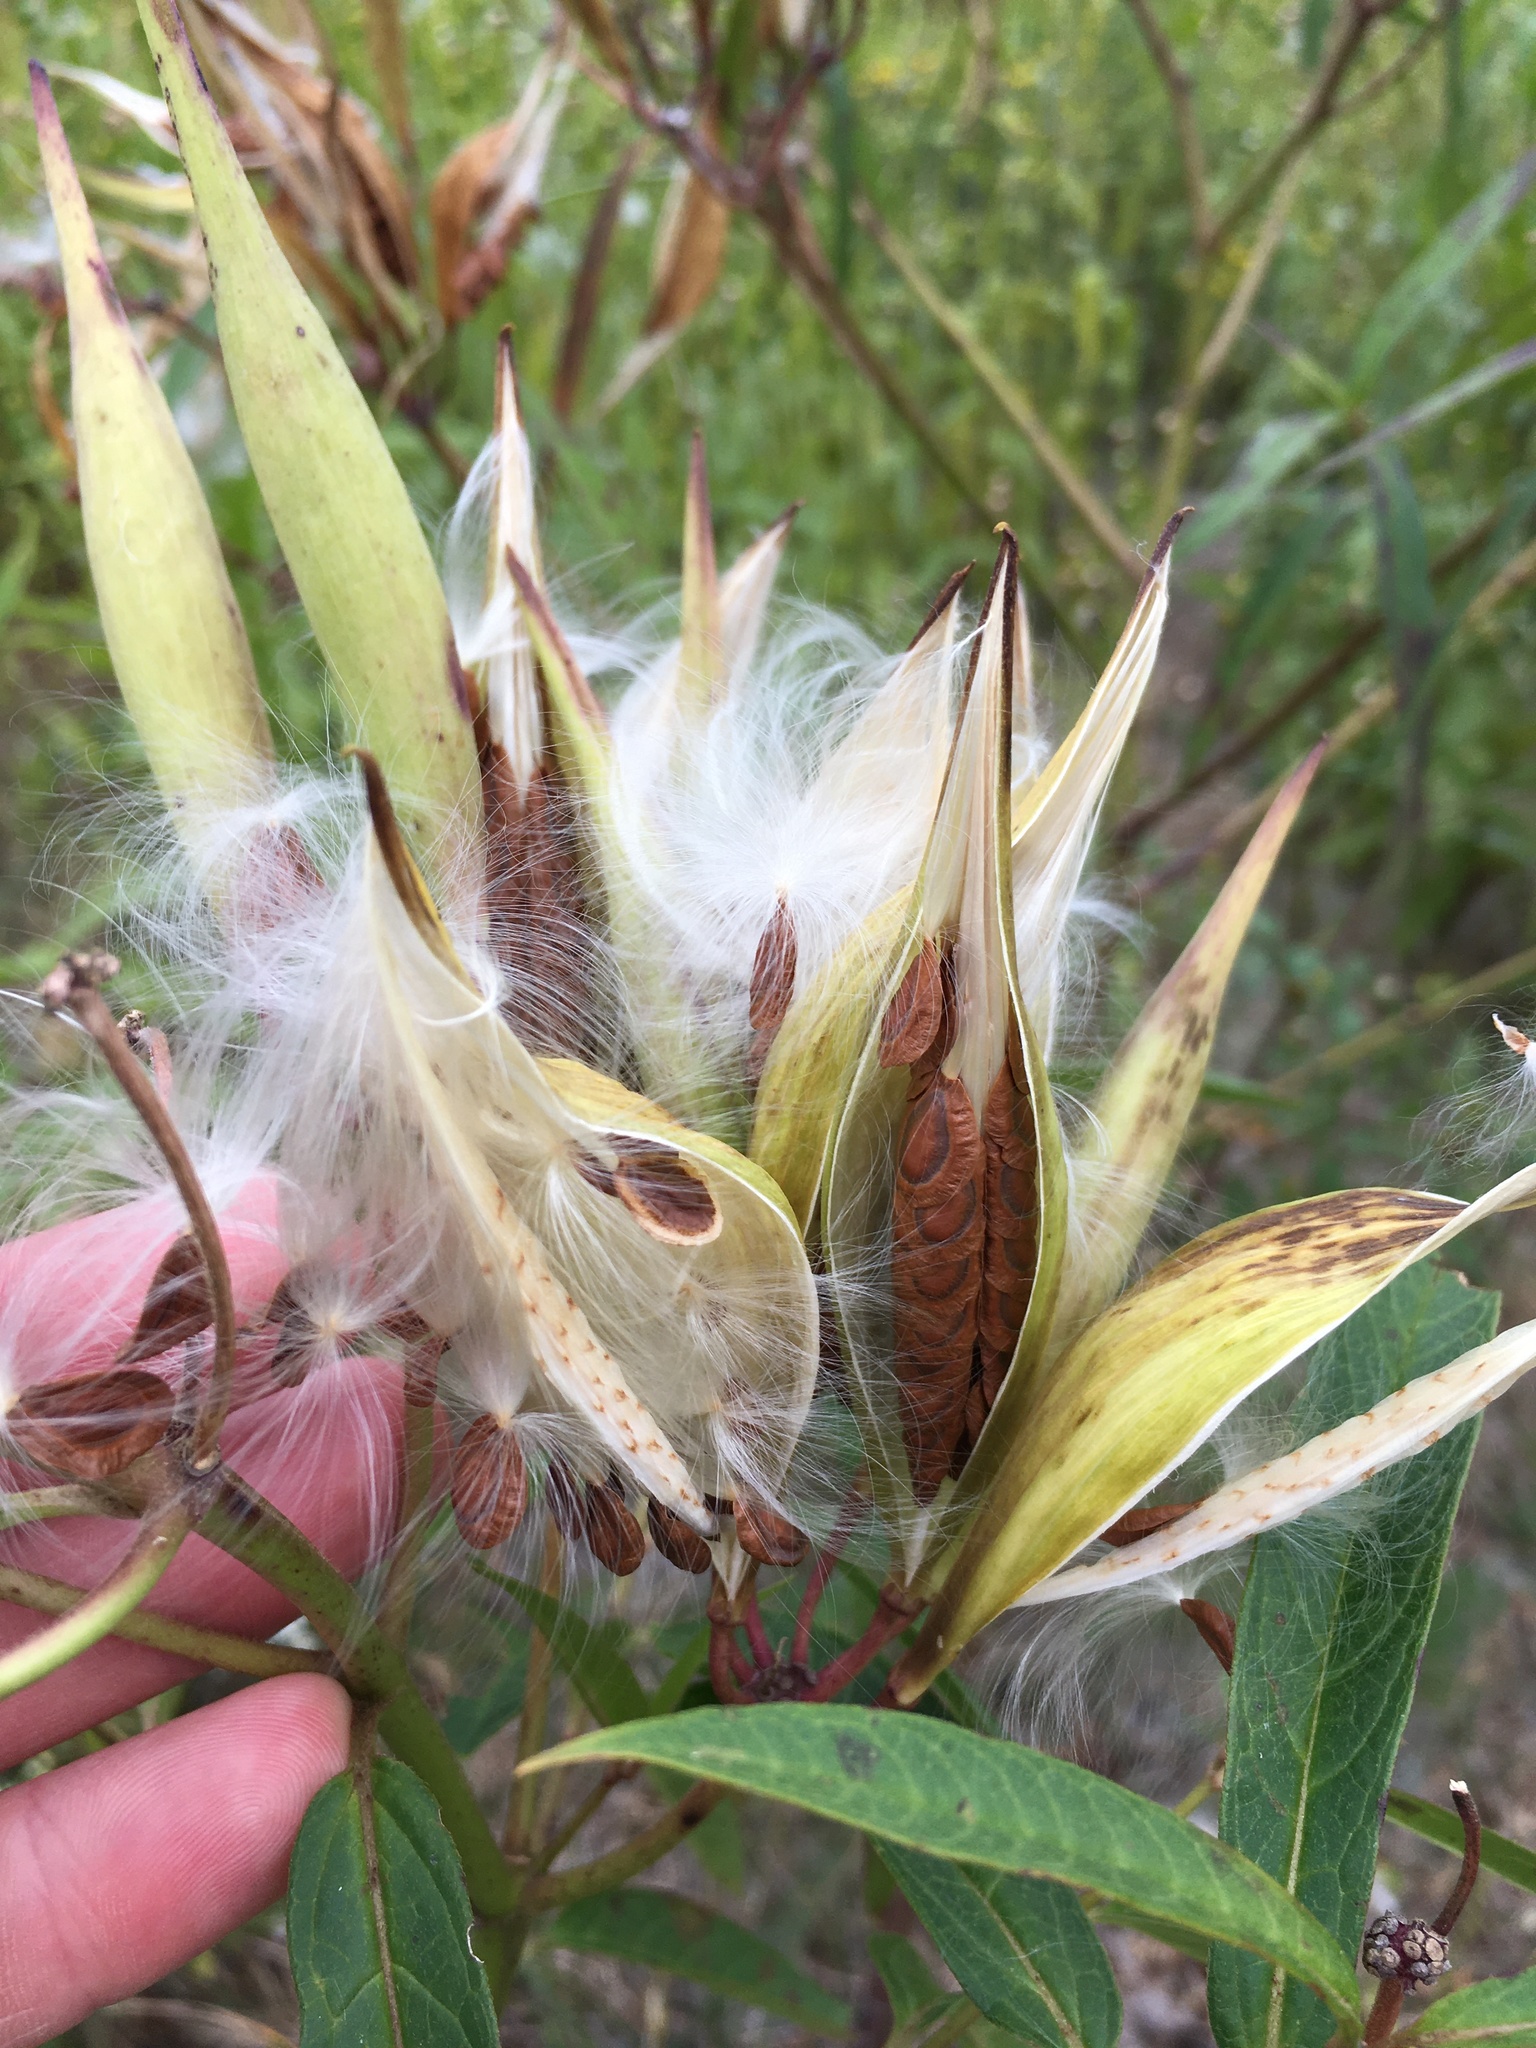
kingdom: Plantae
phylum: Tracheophyta
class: Magnoliopsida
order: Gentianales
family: Apocynaceae
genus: Asclepias
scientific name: Asclepias incarnata
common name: Swamp milkweed
